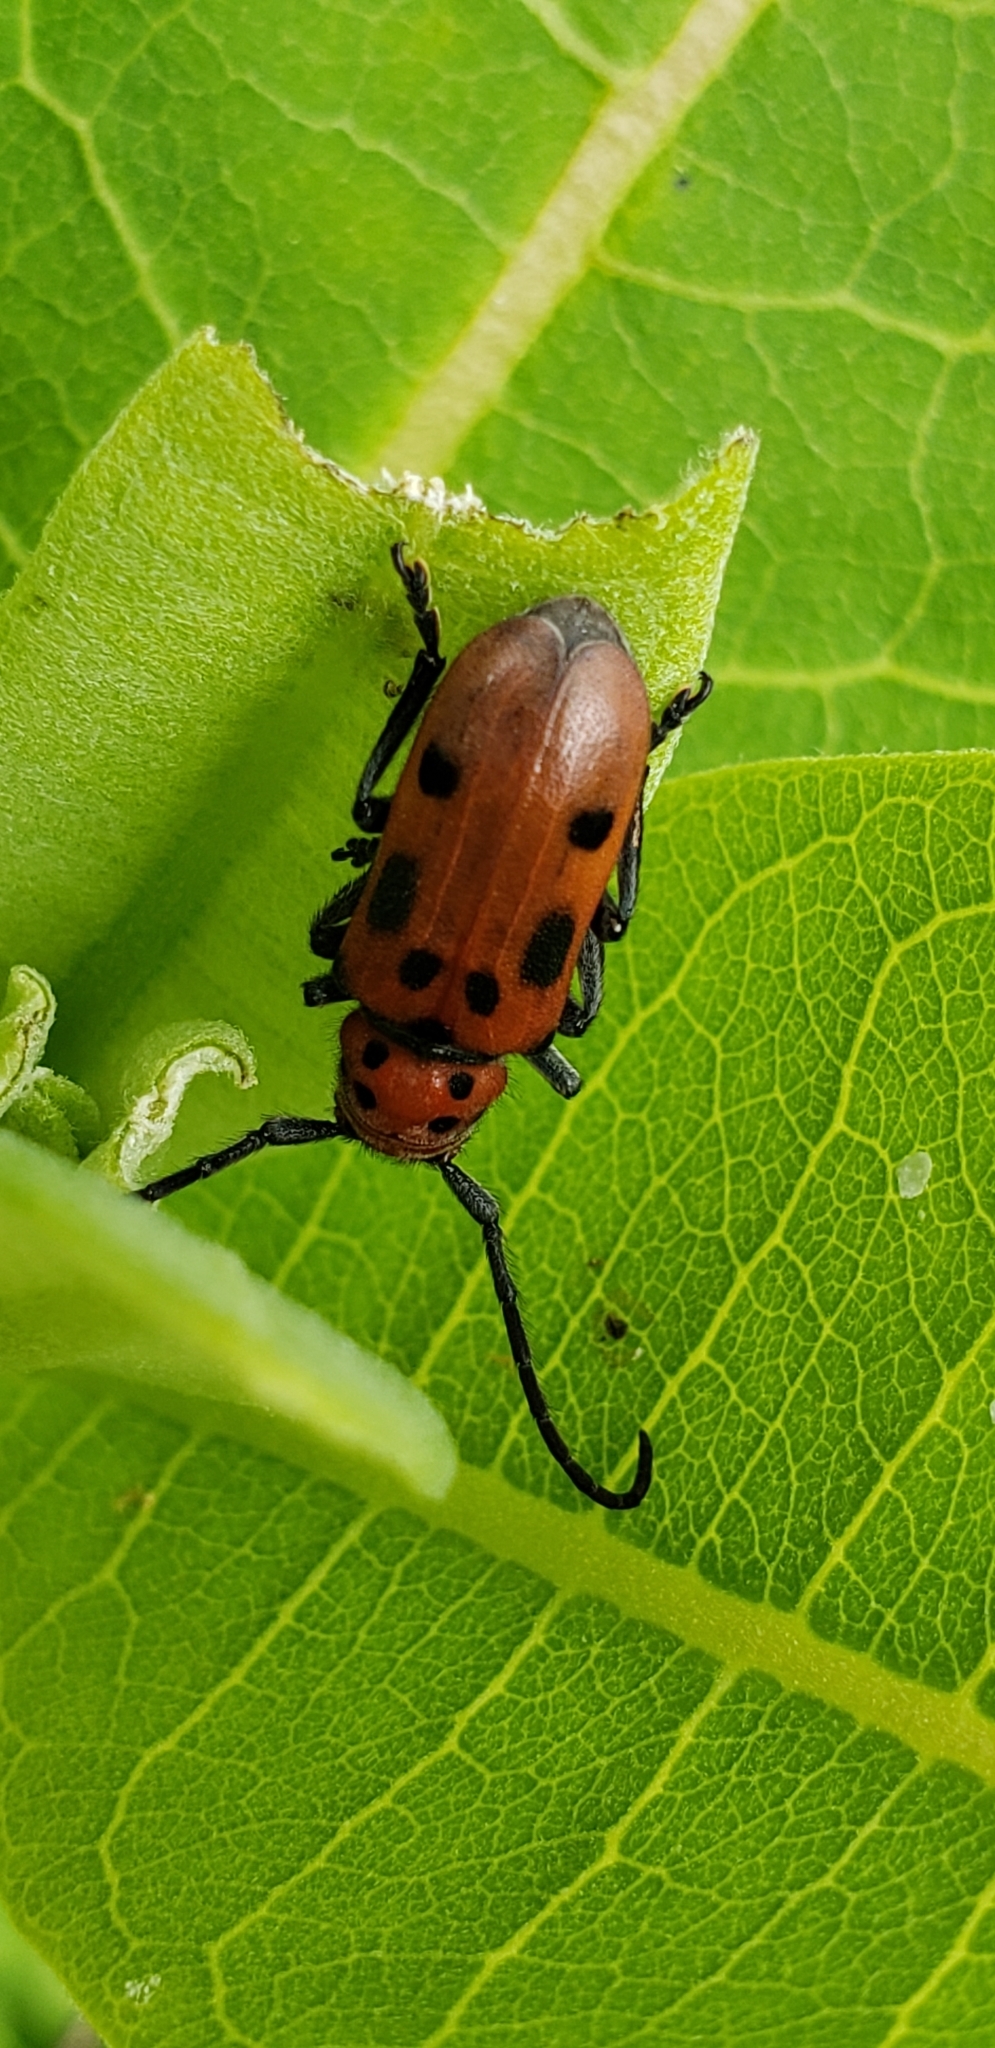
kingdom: Animalia
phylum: Arthropoda
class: Insecta
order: Coleoptera
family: Cerambycidae
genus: Tetraopes
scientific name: Tetraopes tetrophthalmus
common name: Red milkweed beetle
